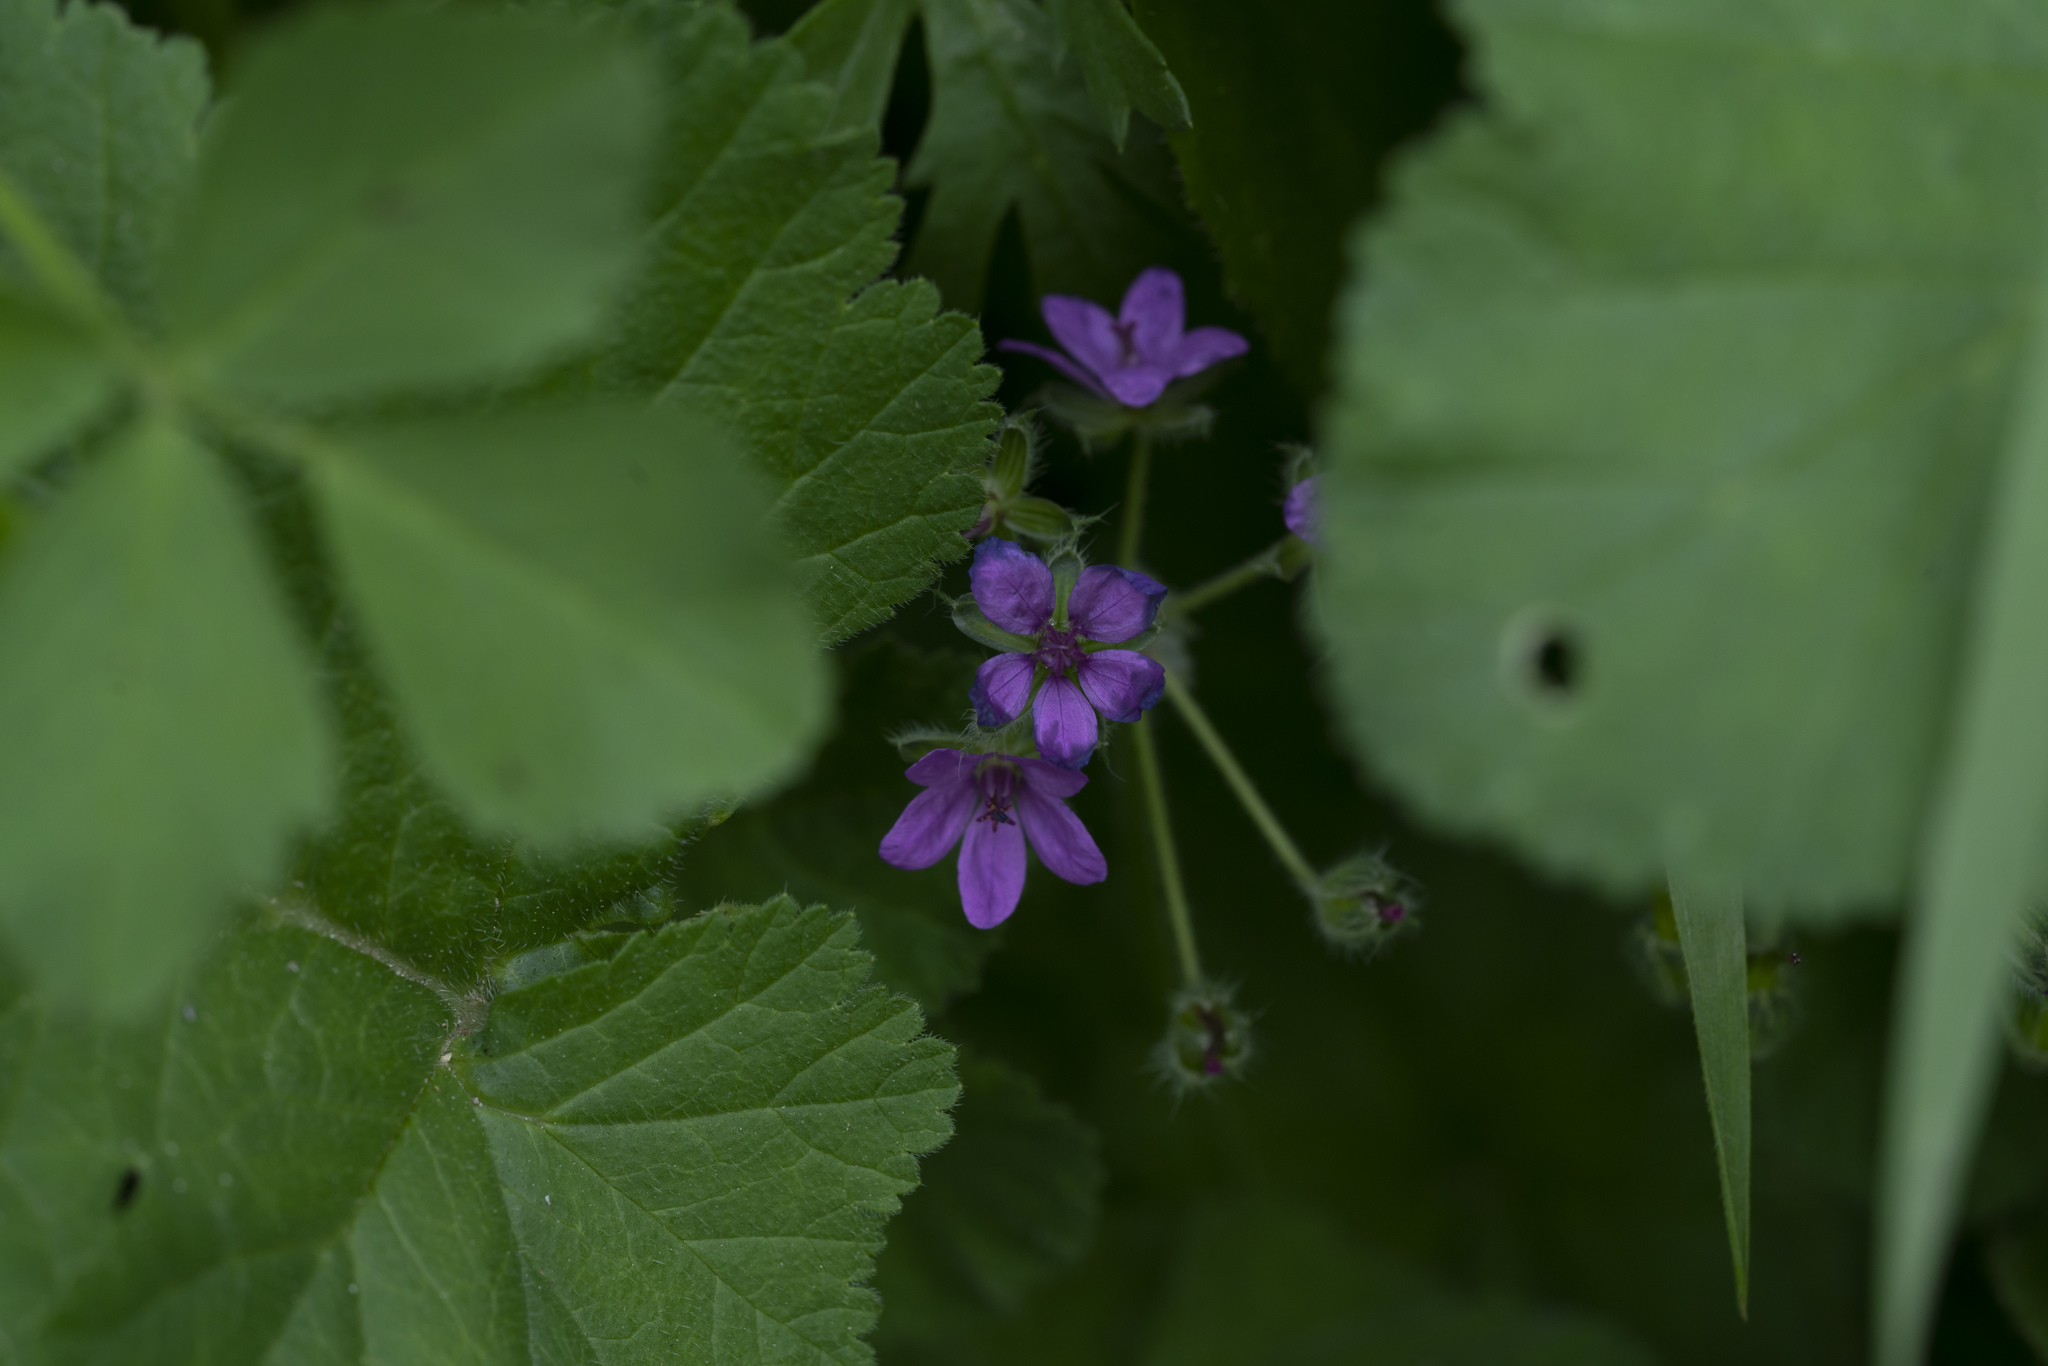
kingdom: Plantae
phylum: Tracheophyta
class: Magnoliopsida
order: Geraniales
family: Geraniaceae
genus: Erodium
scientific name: Erodium malacoides
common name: Soft stork's-bill
